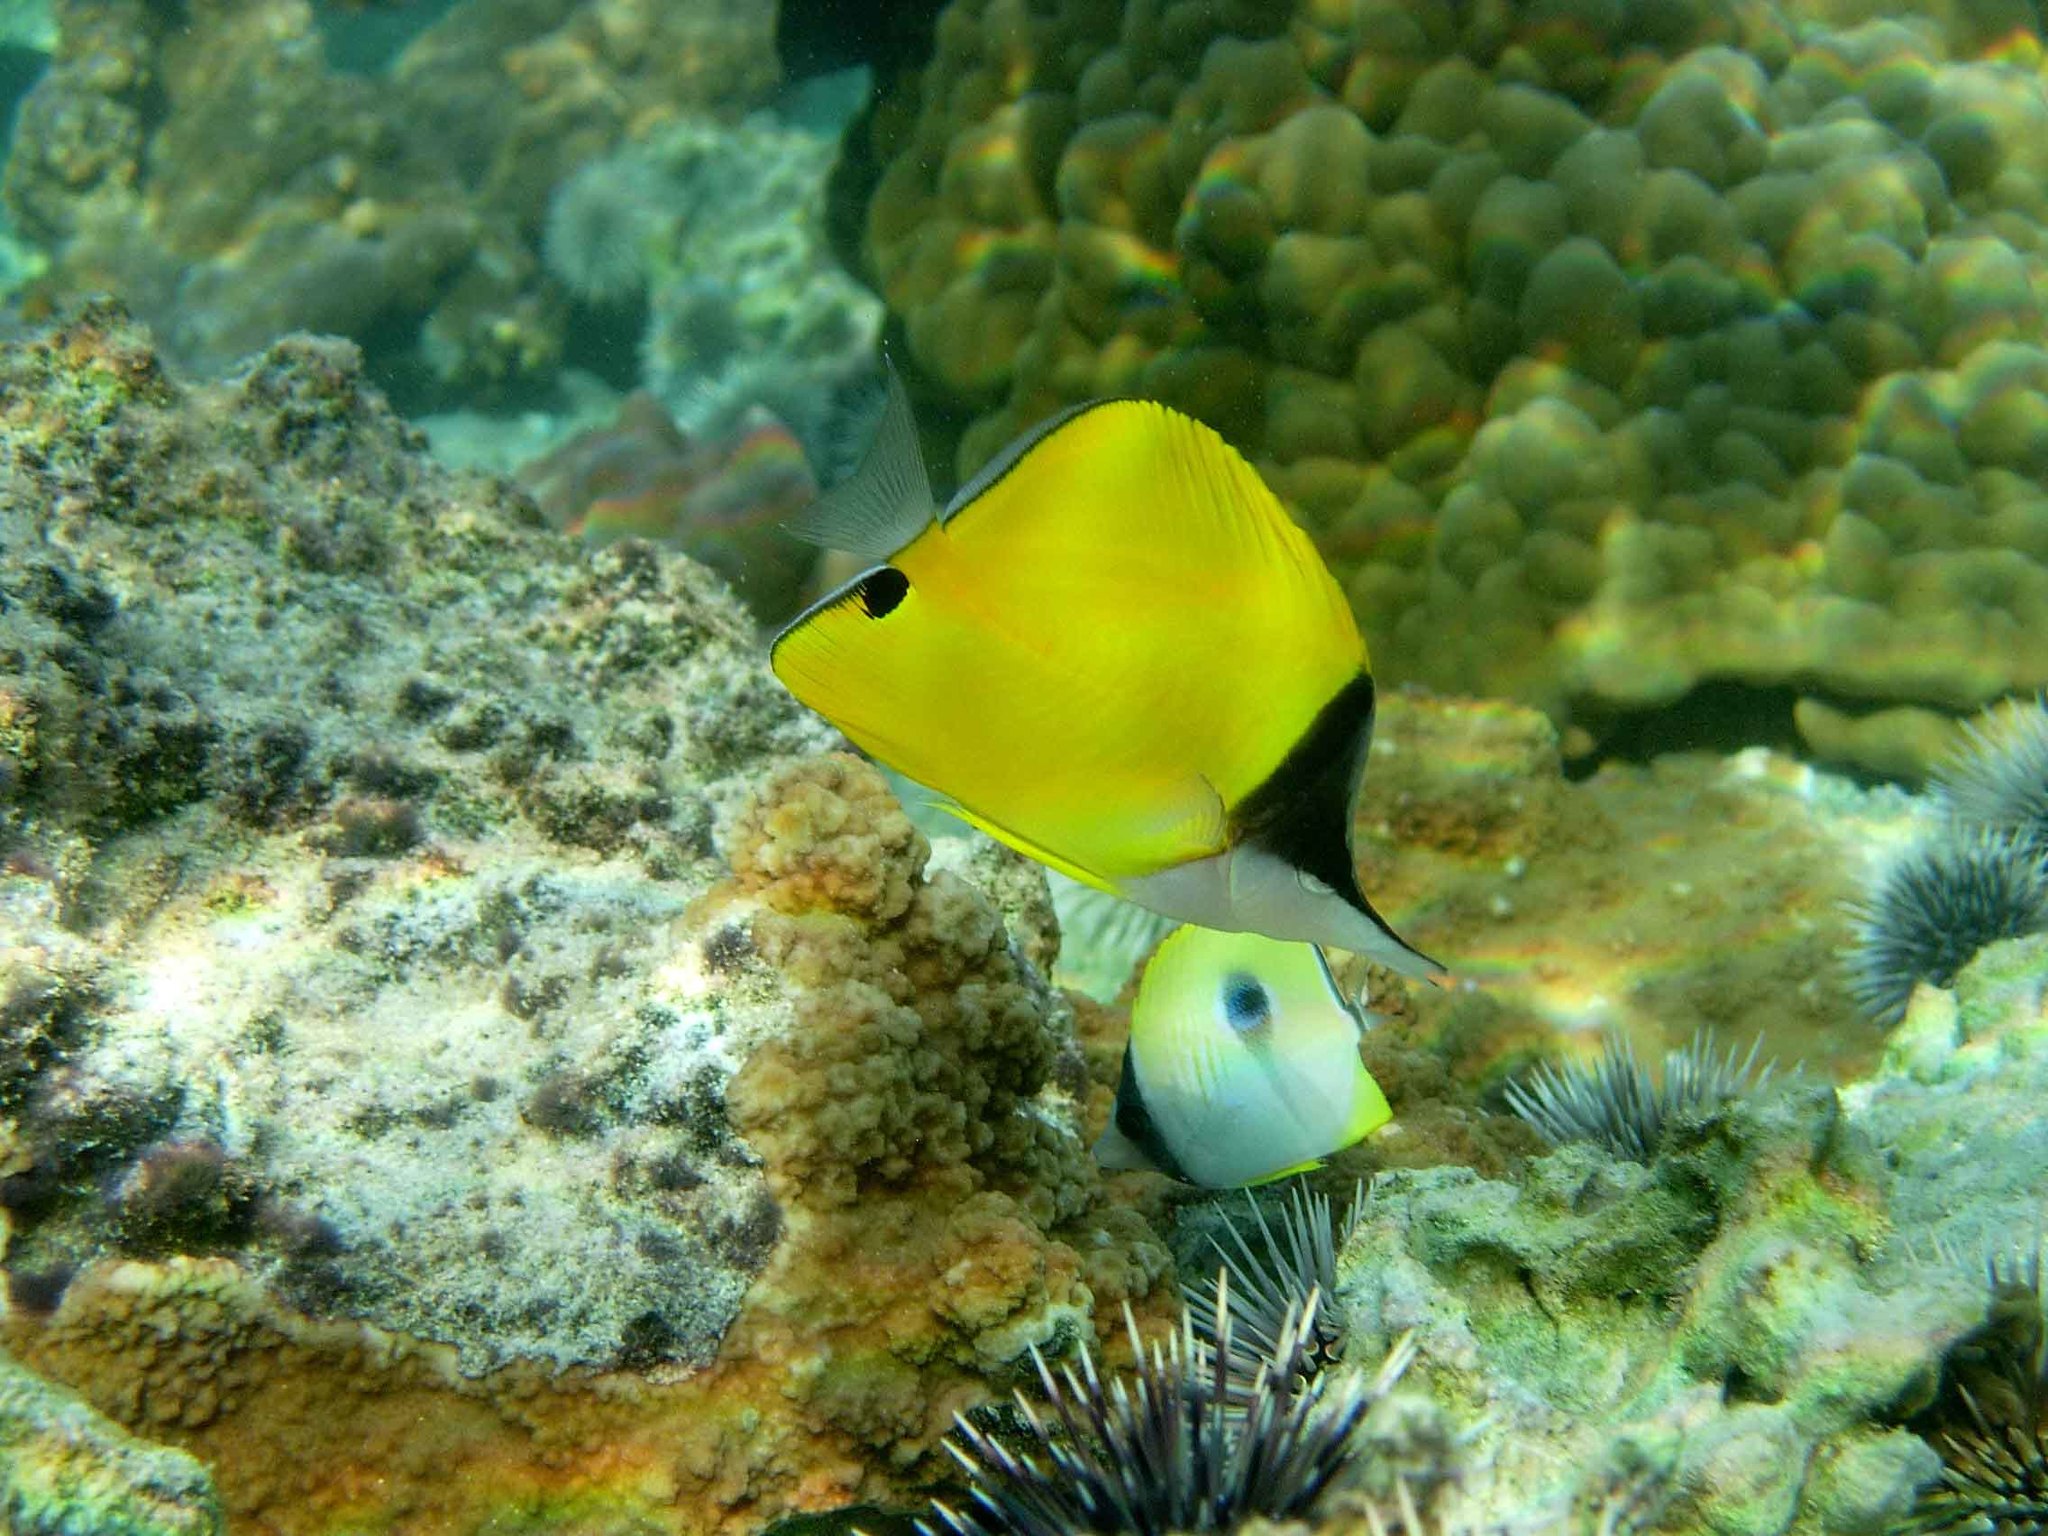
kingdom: Animalia
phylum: Chordata
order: Perciformes
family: Chaetodontidae
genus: Forcipiger
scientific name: Forcipiger flavissimus
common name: Forcepsfish
